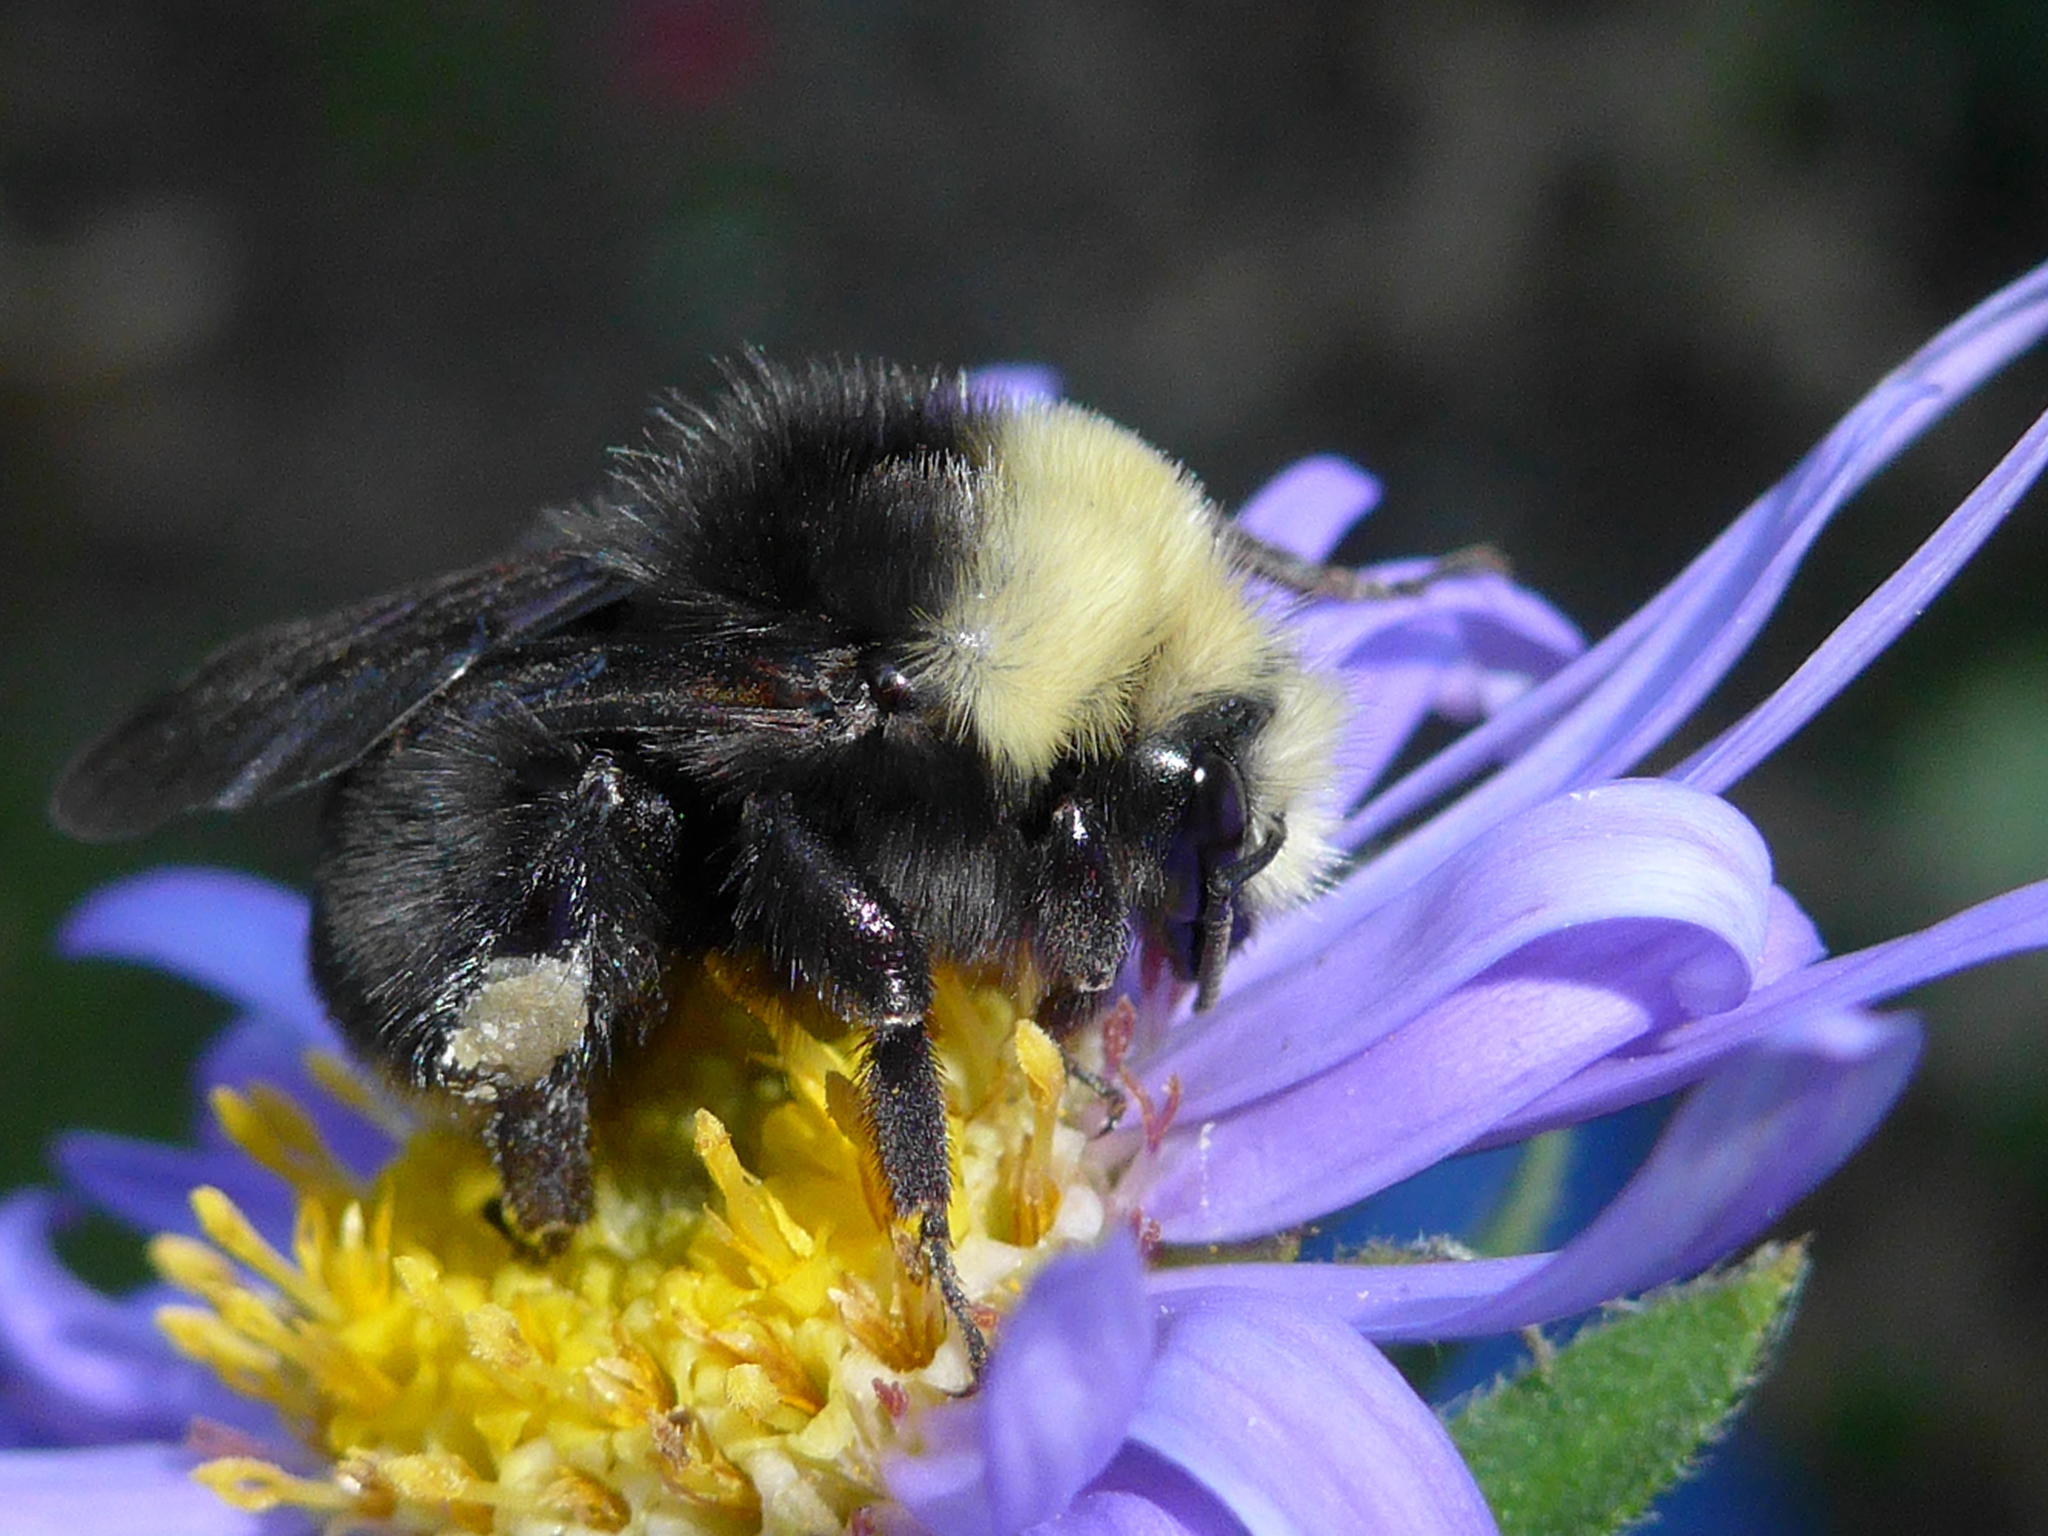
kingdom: Animalia
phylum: Arthropoda
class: Insecta
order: Hymenoptera
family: Apidae
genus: Bombus
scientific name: Bombus vosnesenskii
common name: Vosnesensky bumble bee
